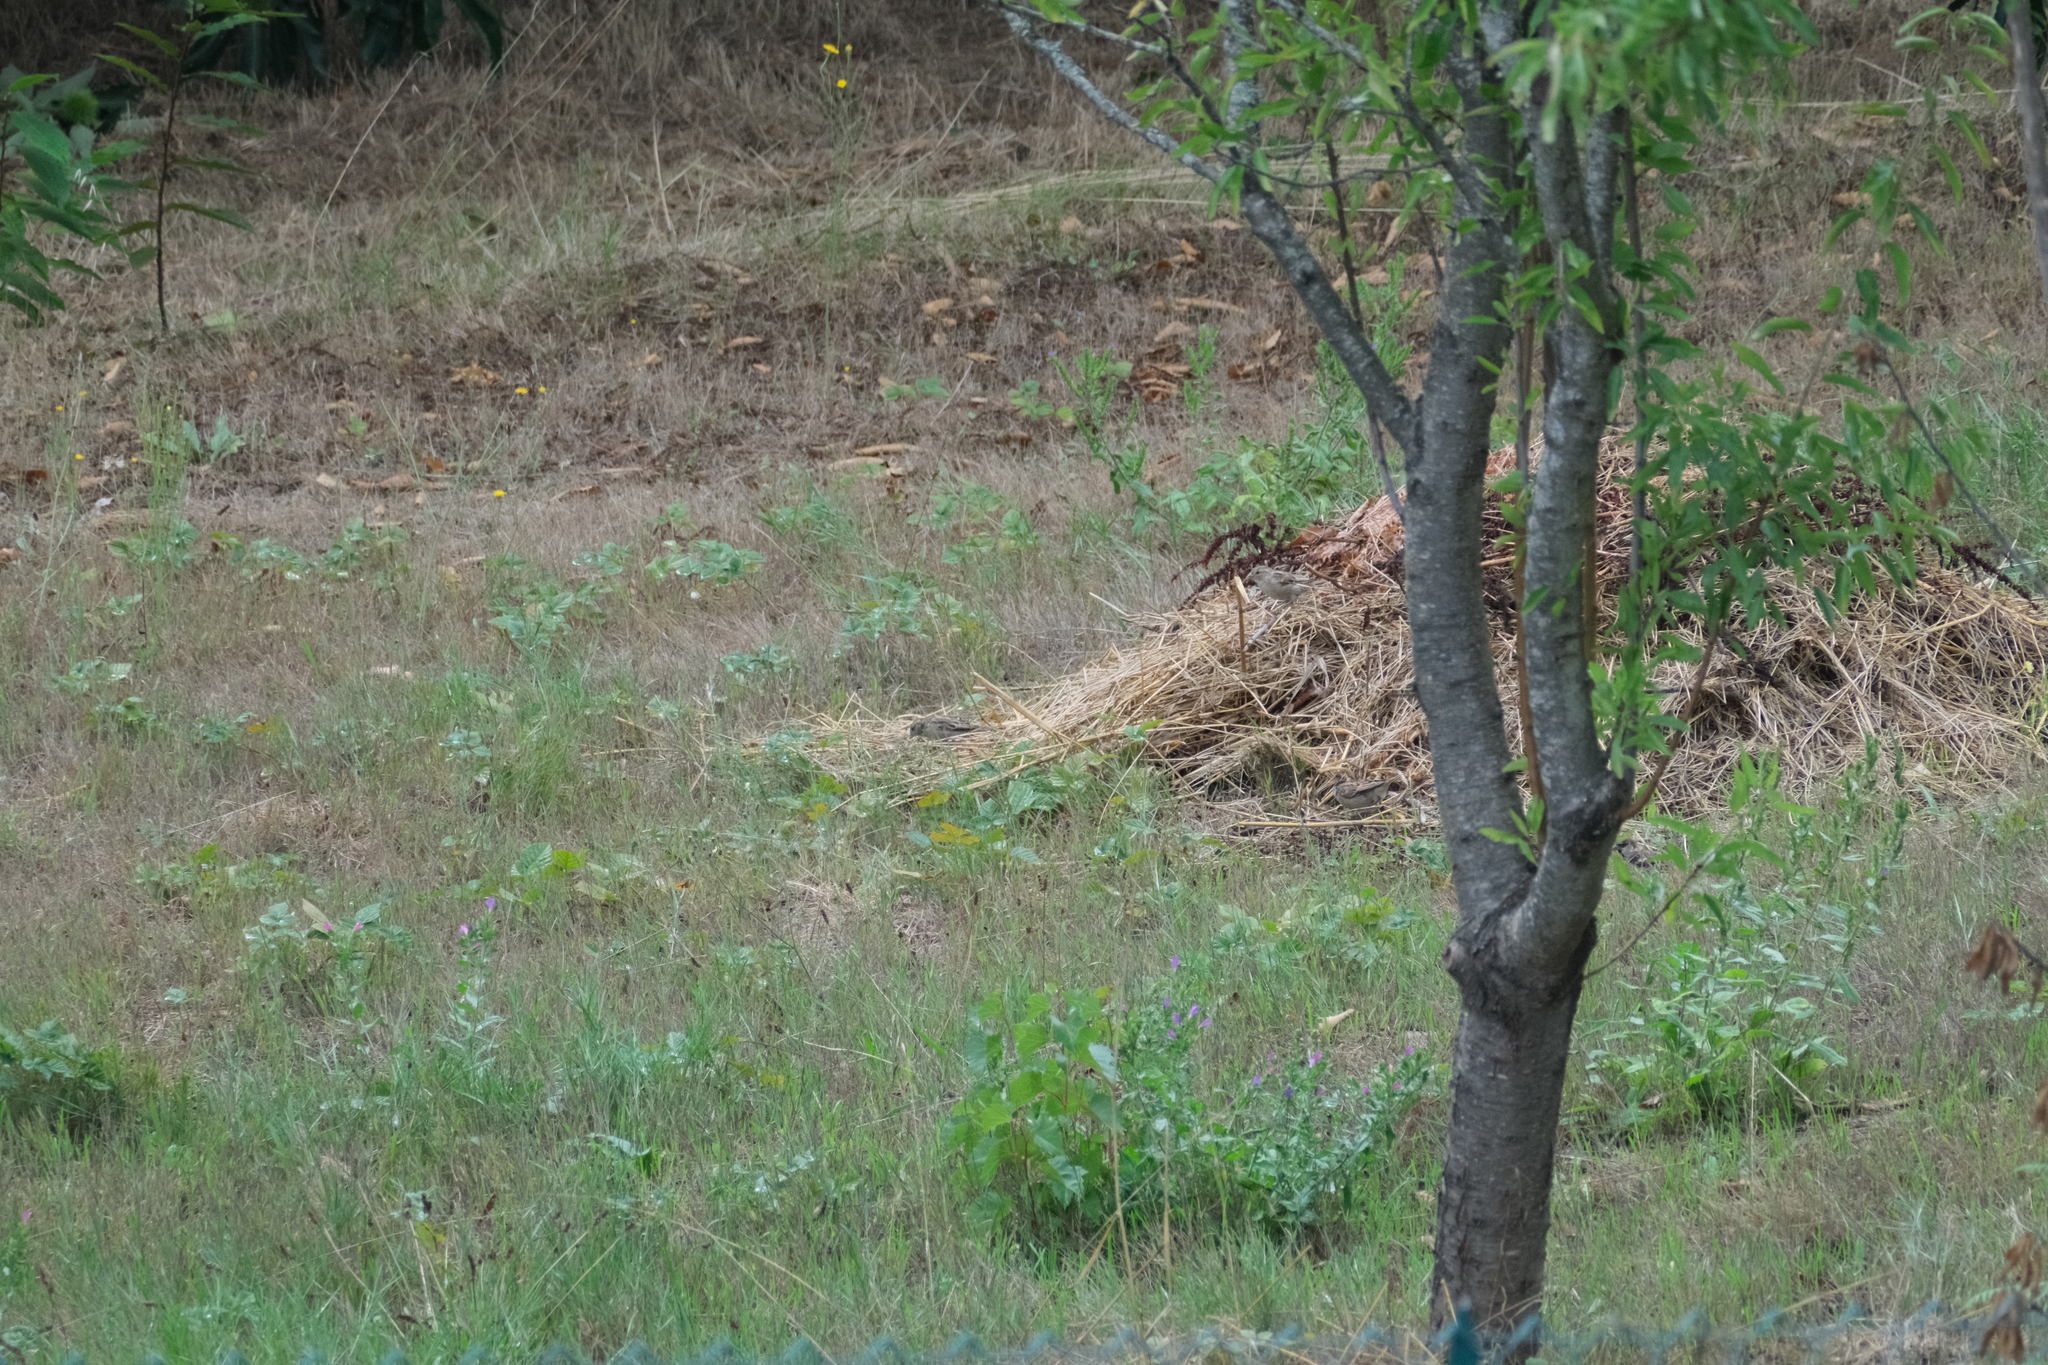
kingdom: Animalia
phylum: Chordata
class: Aves
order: Passeriformes
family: Passeridae
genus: Passer
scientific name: Passer domesticus
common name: House sparrow
